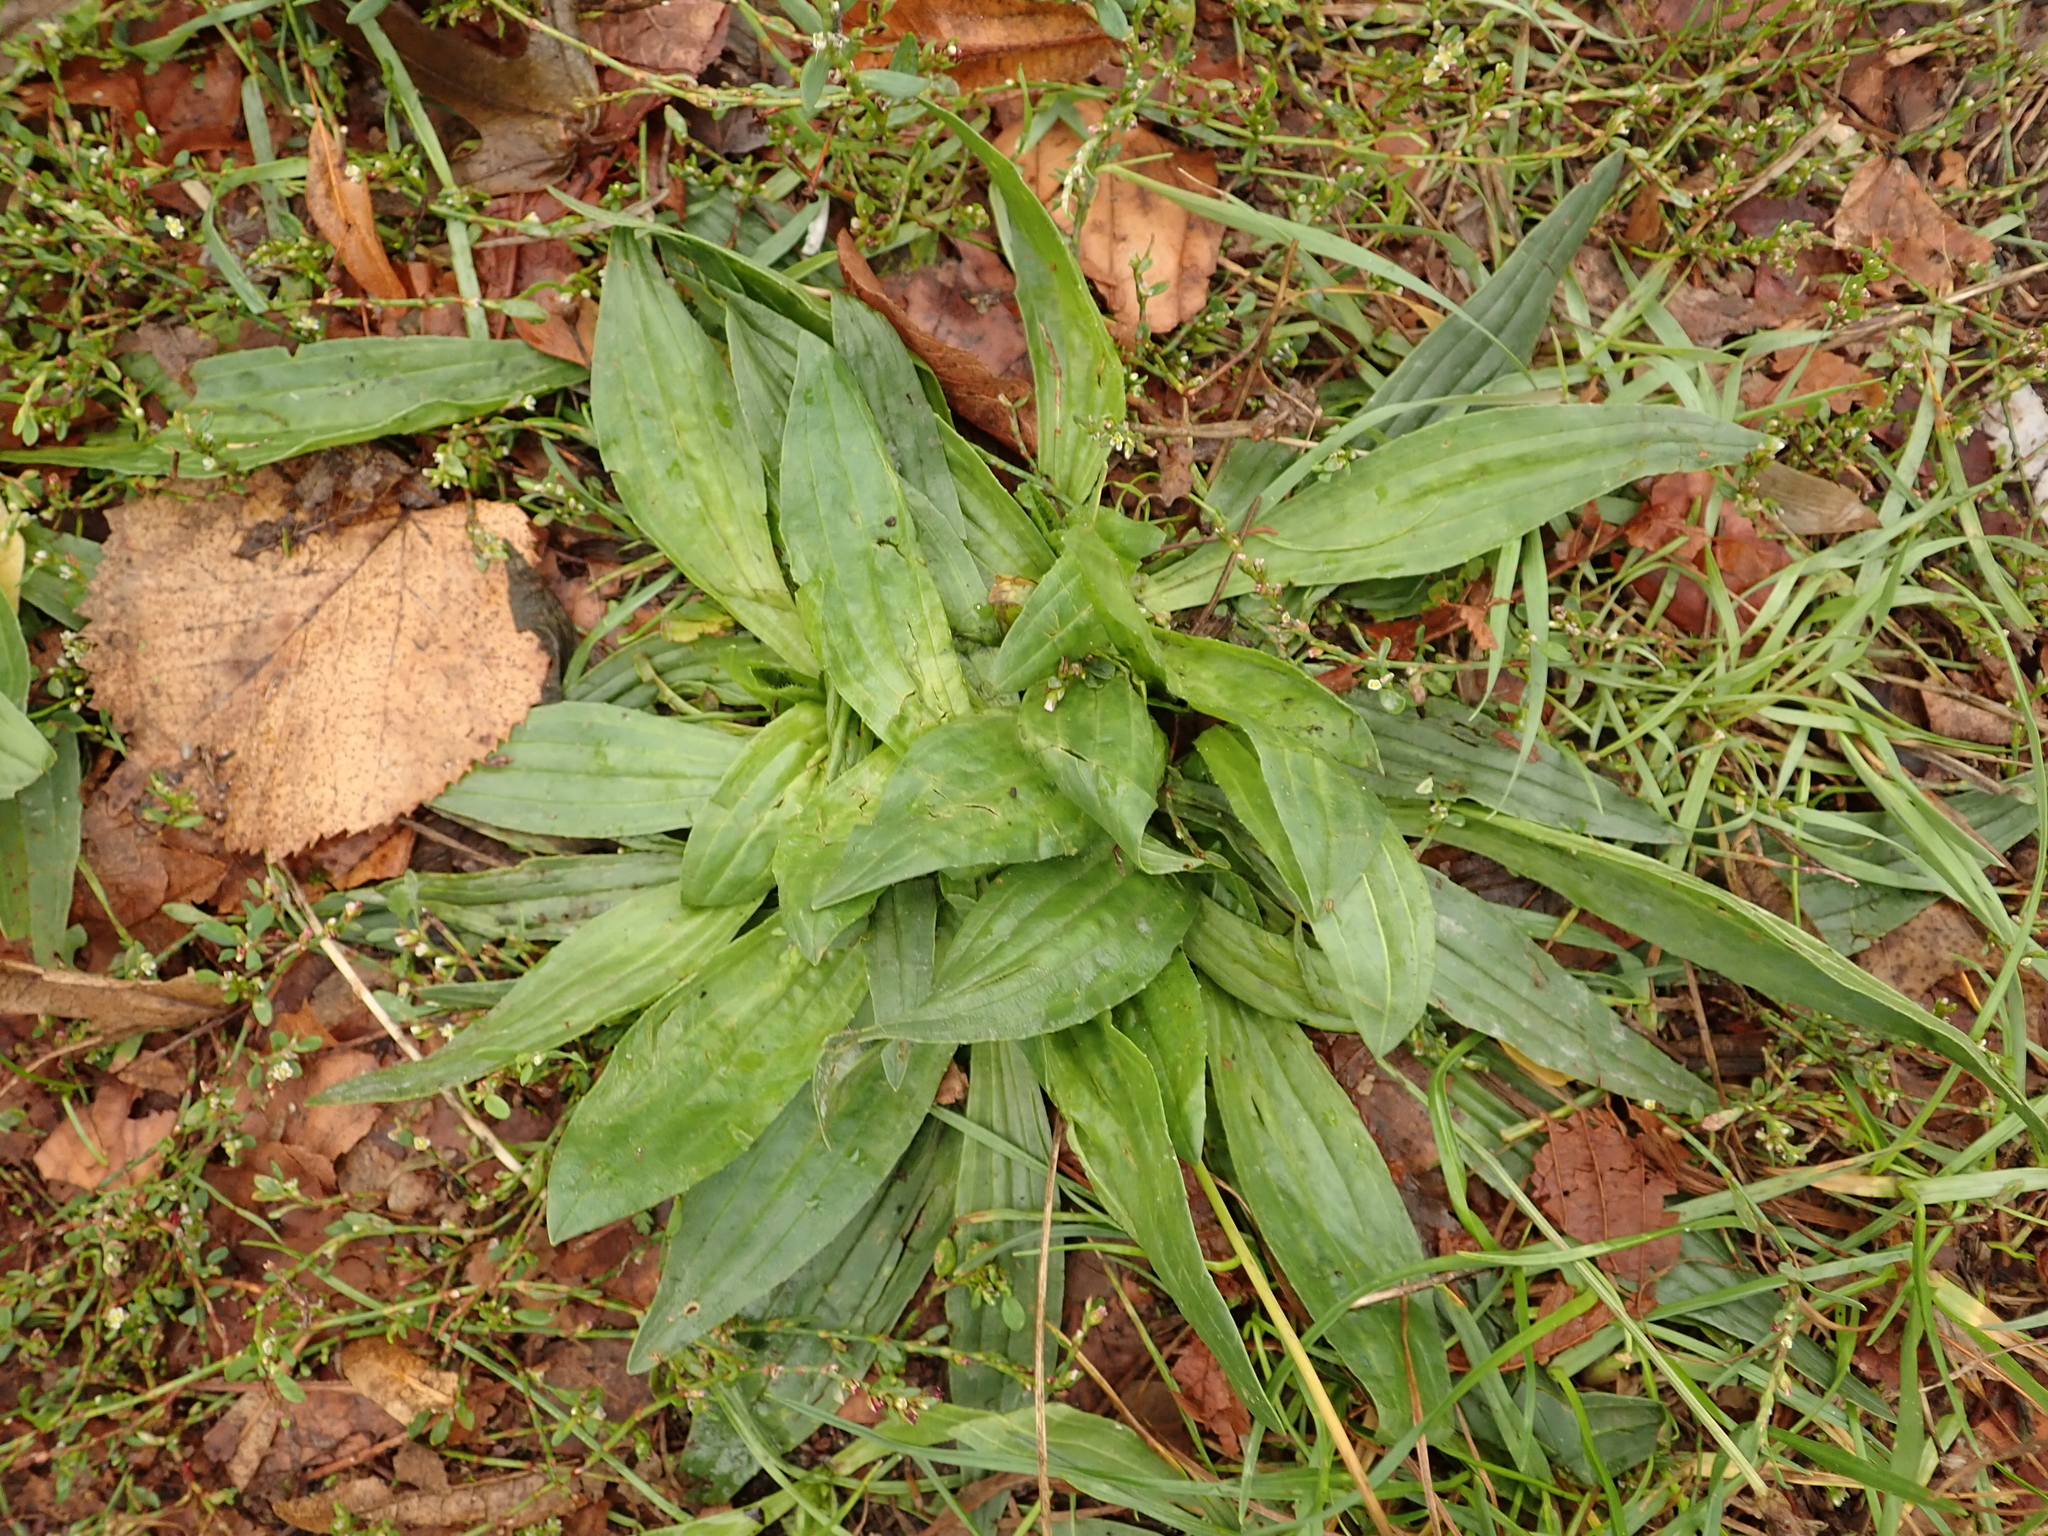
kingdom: Plantae
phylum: Tracheophyta
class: Magnoliopsida
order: Lamiales
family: Plantaginaceae
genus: Plantago
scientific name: Plantago lanceolata
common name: Ribwort plantain
